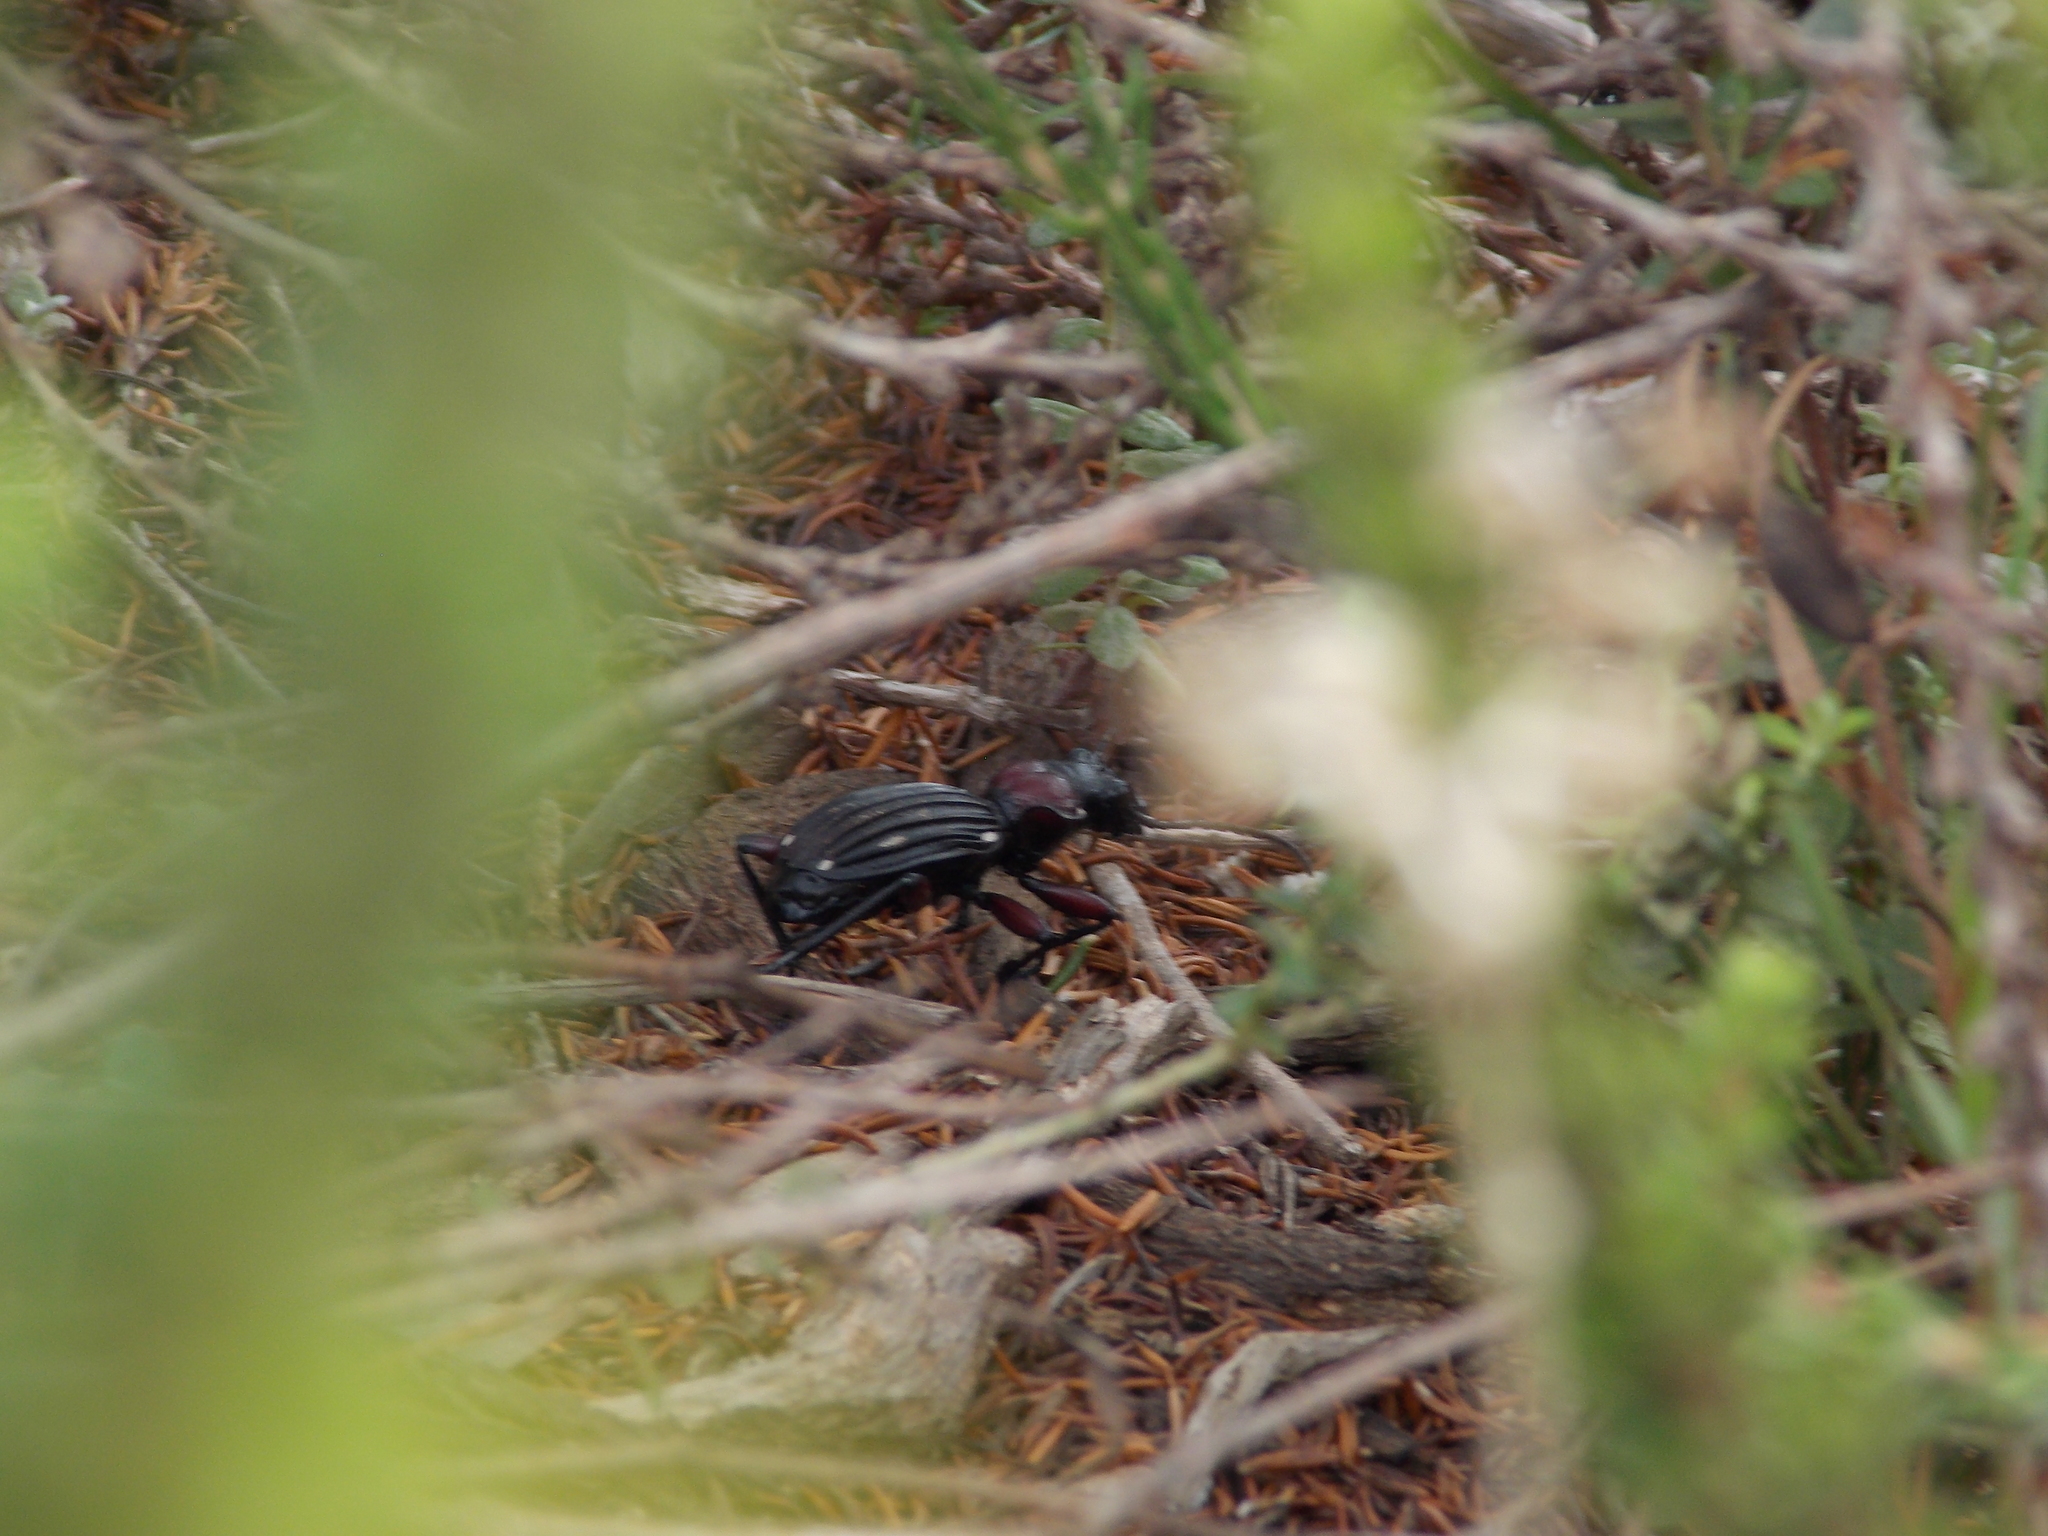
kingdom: Animalia
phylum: Arthropoda
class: Insecta
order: Coleoptera
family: Carabidae
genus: Anthia
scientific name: Anthia decemguttata
